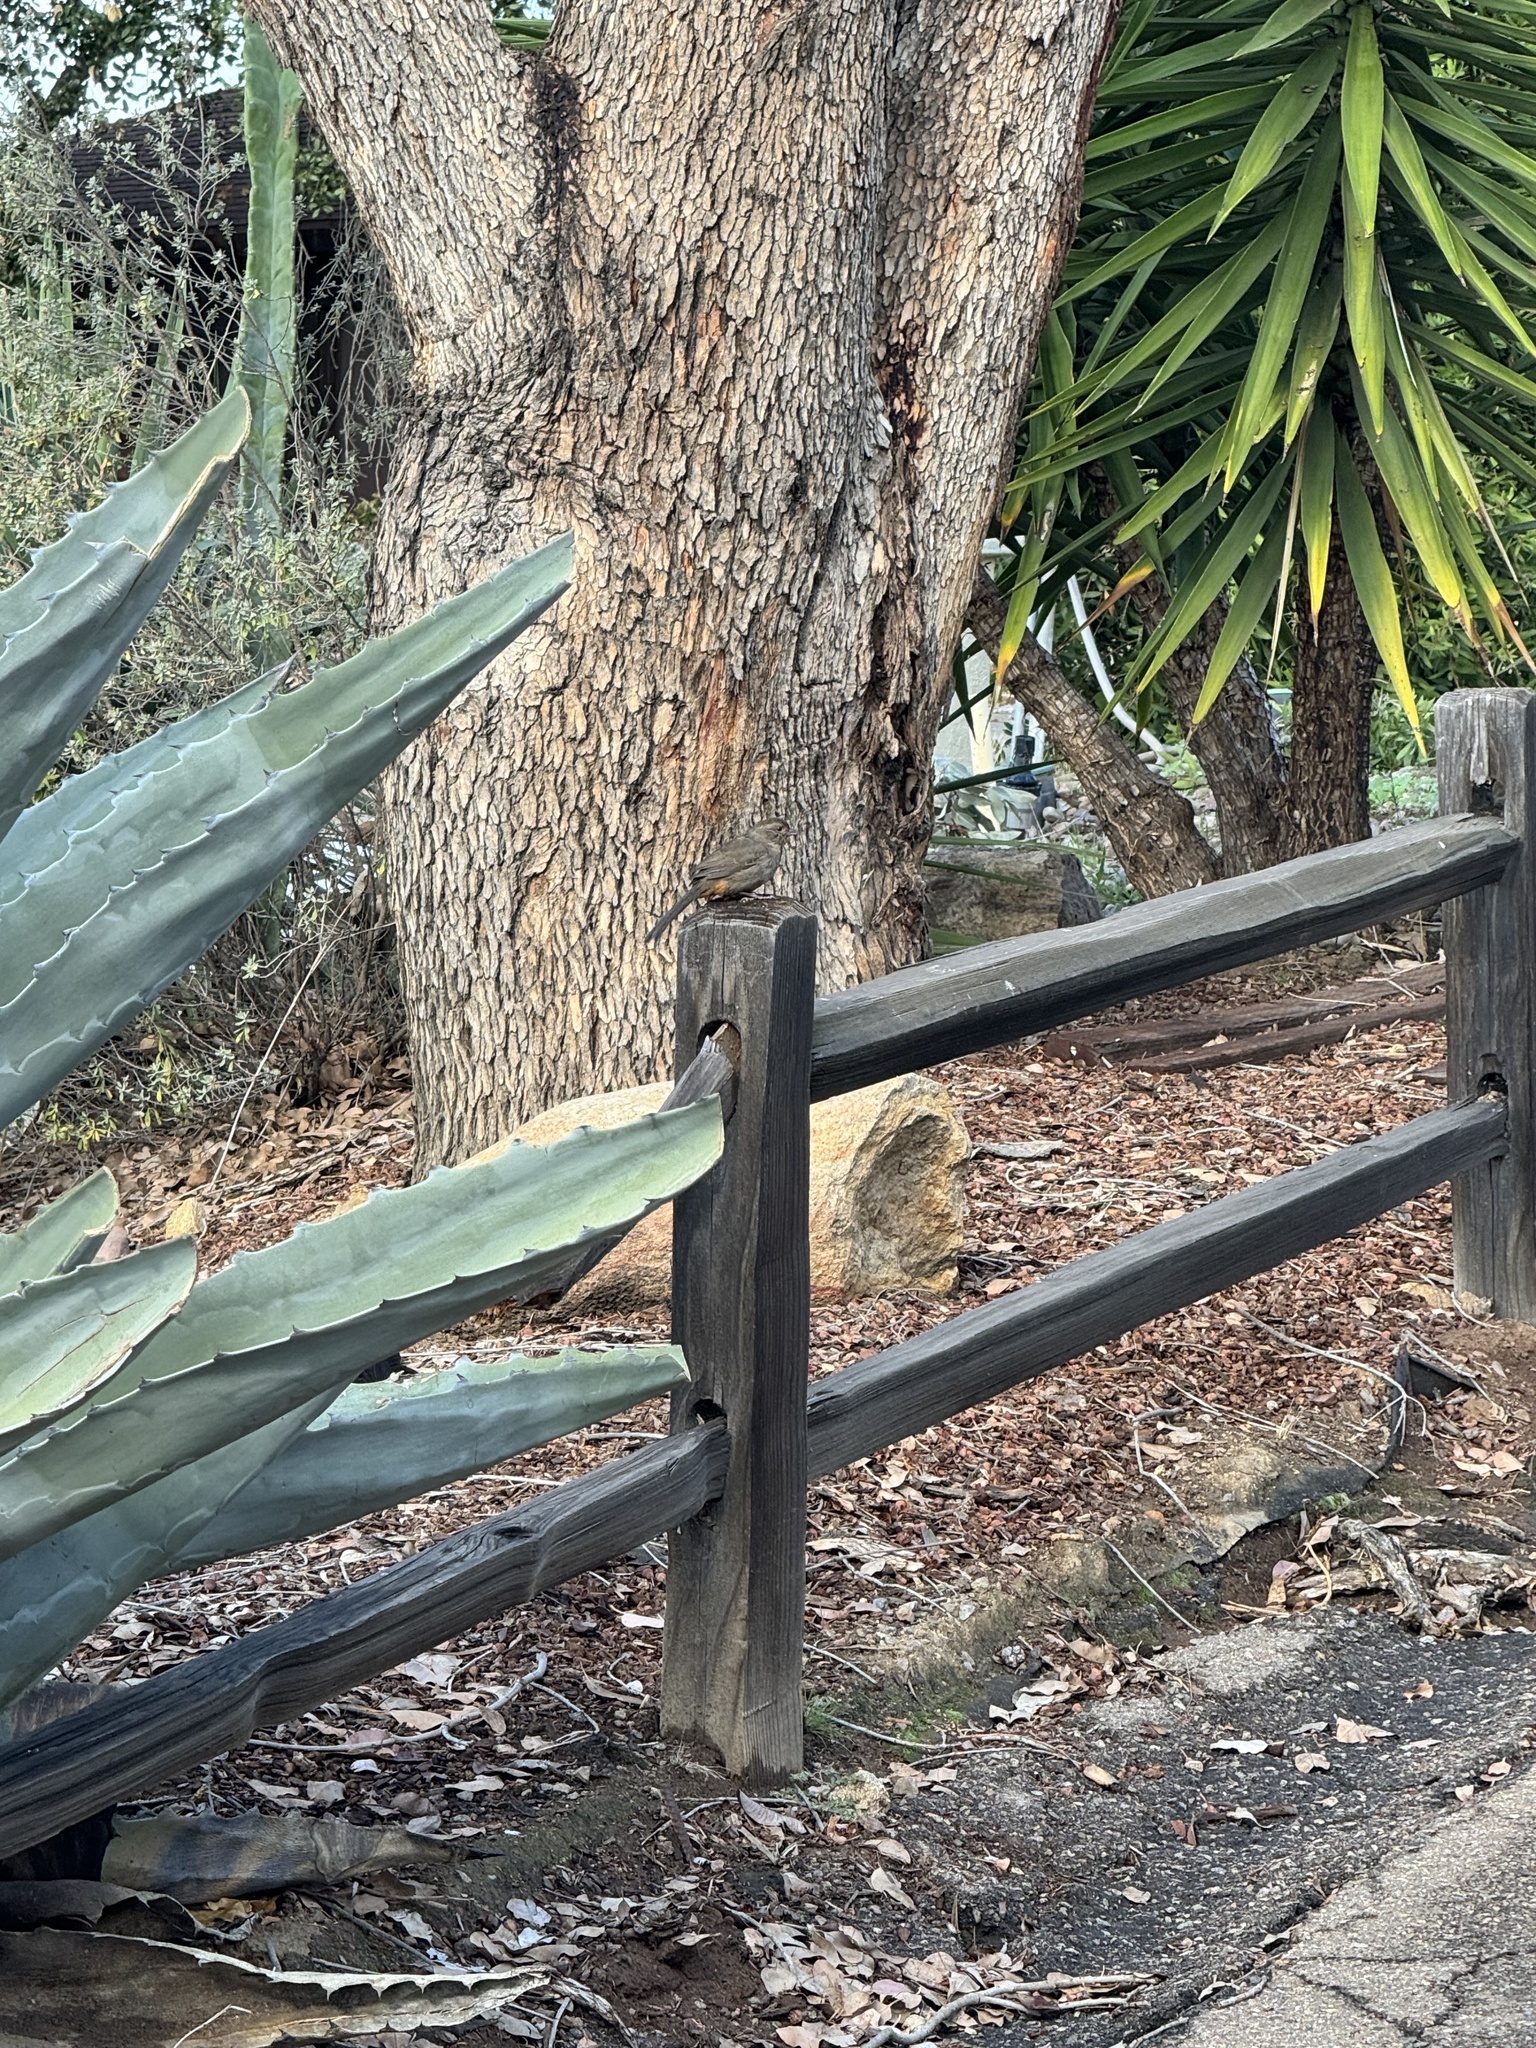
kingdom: Animalia
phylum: Chordata
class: Aves
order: Passeriformes
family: Passerellidae
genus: Melozone
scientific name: Melozone crissalis
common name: California towhee
